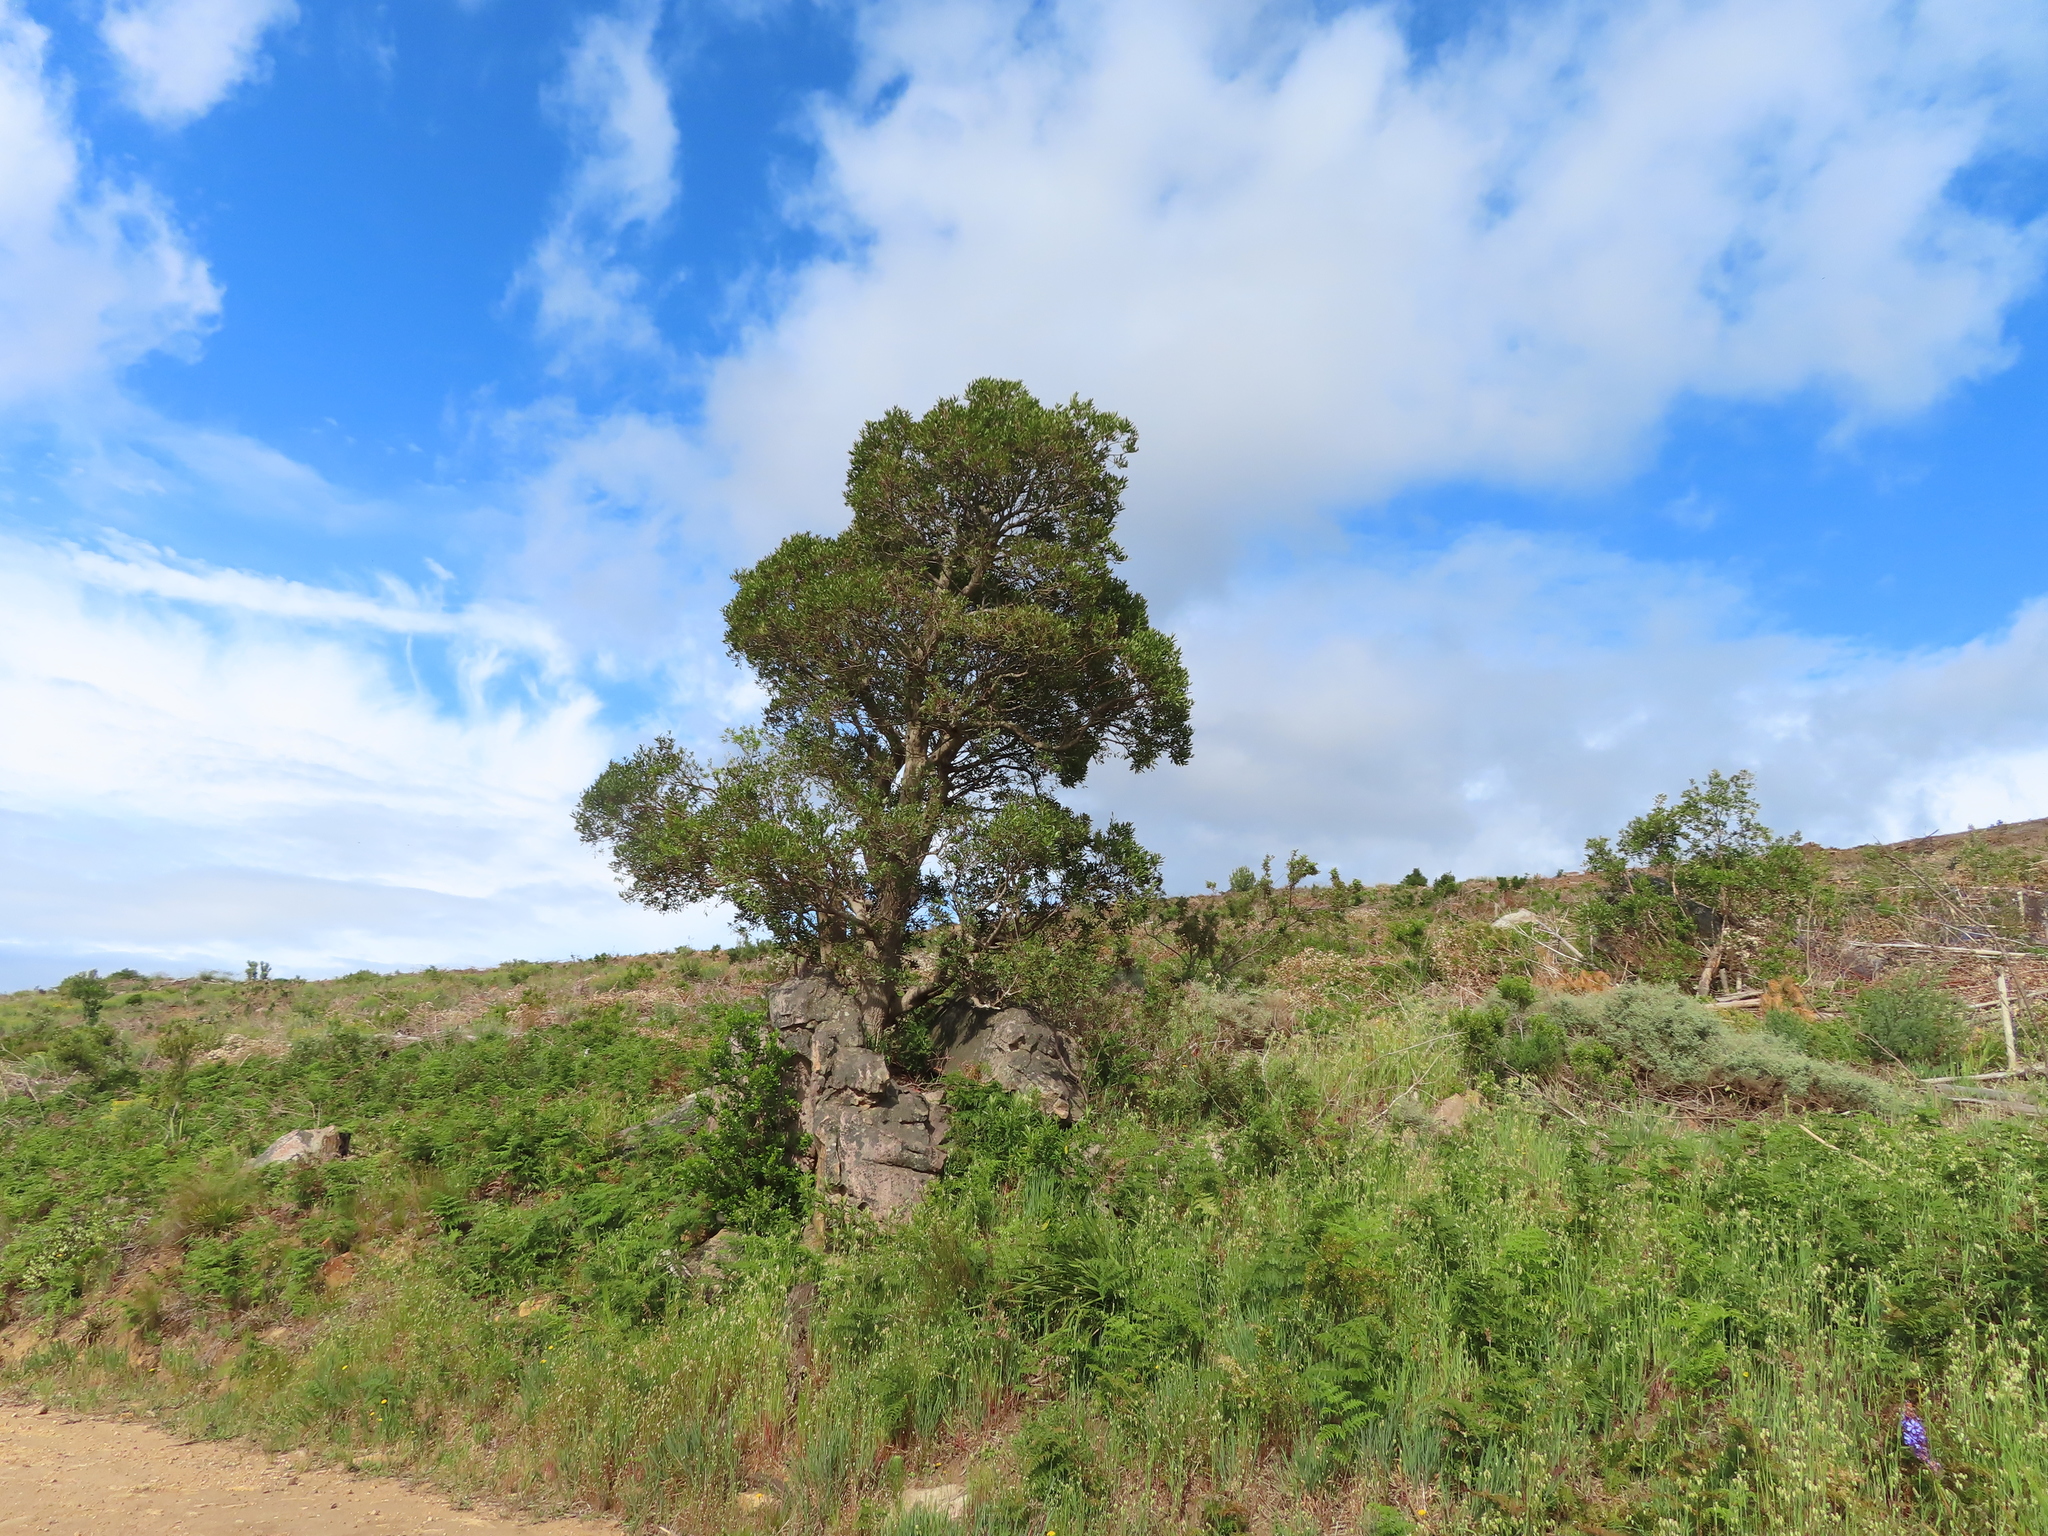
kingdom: Plantae
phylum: Tracheophyta
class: Magnoliopsida
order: Celastrales
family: Celastraceae
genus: Gymnosporia
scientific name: Gymnosporia laurina
